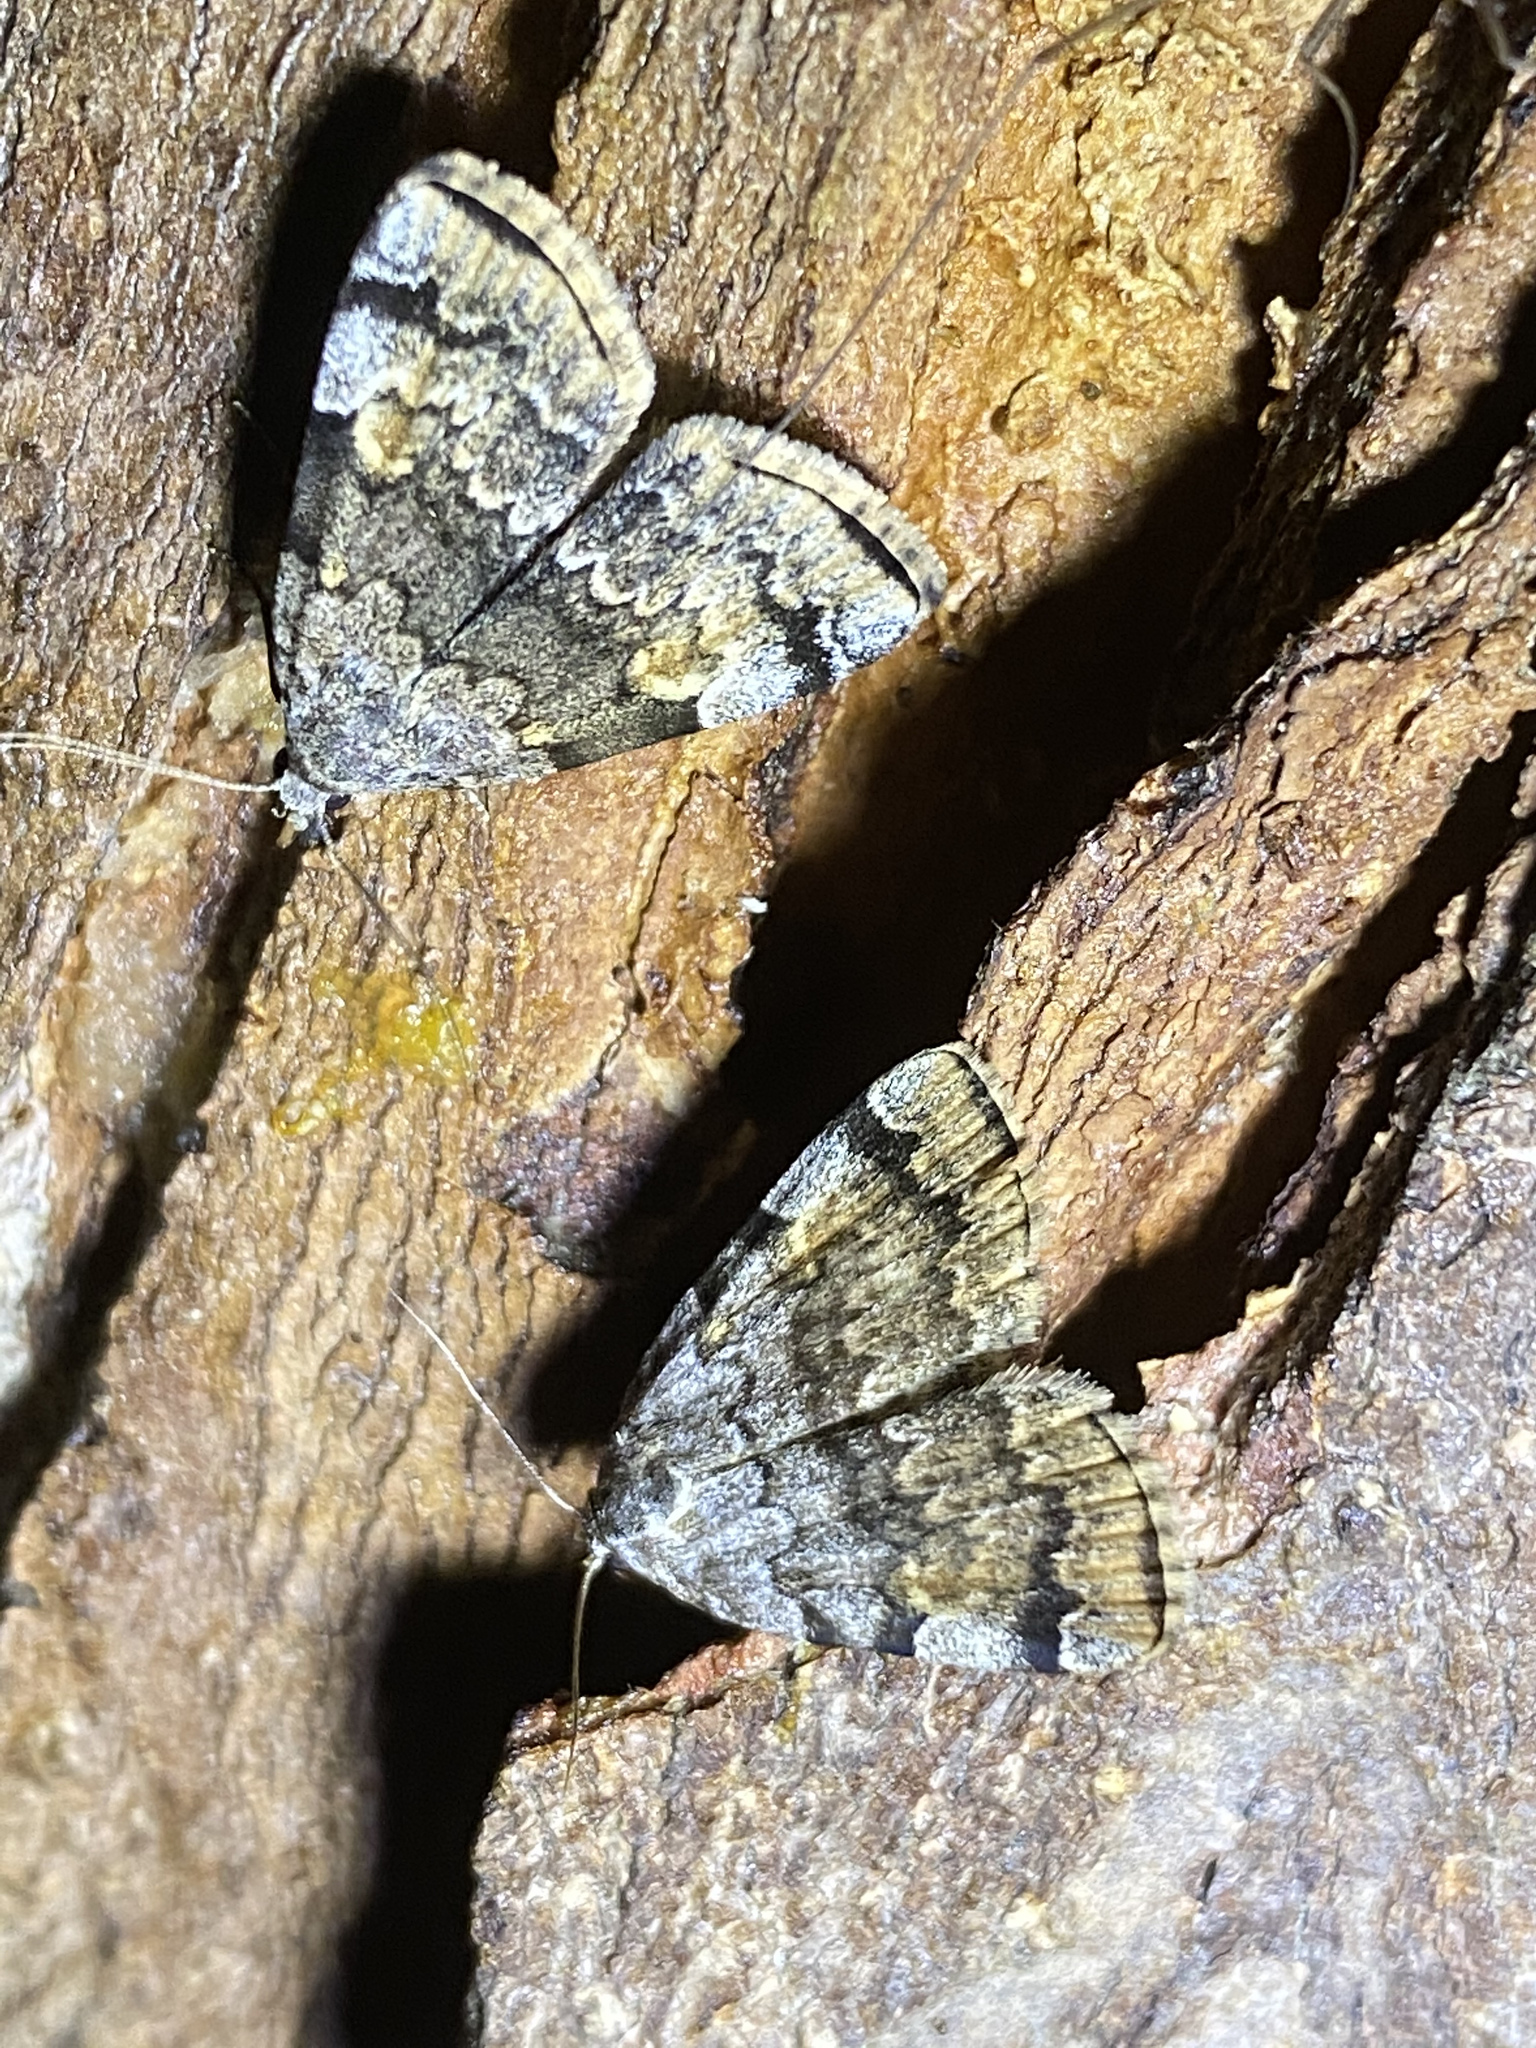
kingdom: Animalia
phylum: Arthropoda
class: Insecta
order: Lepidoptera
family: Erebidae
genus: Idia
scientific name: Idia americalis
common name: American idia moth
